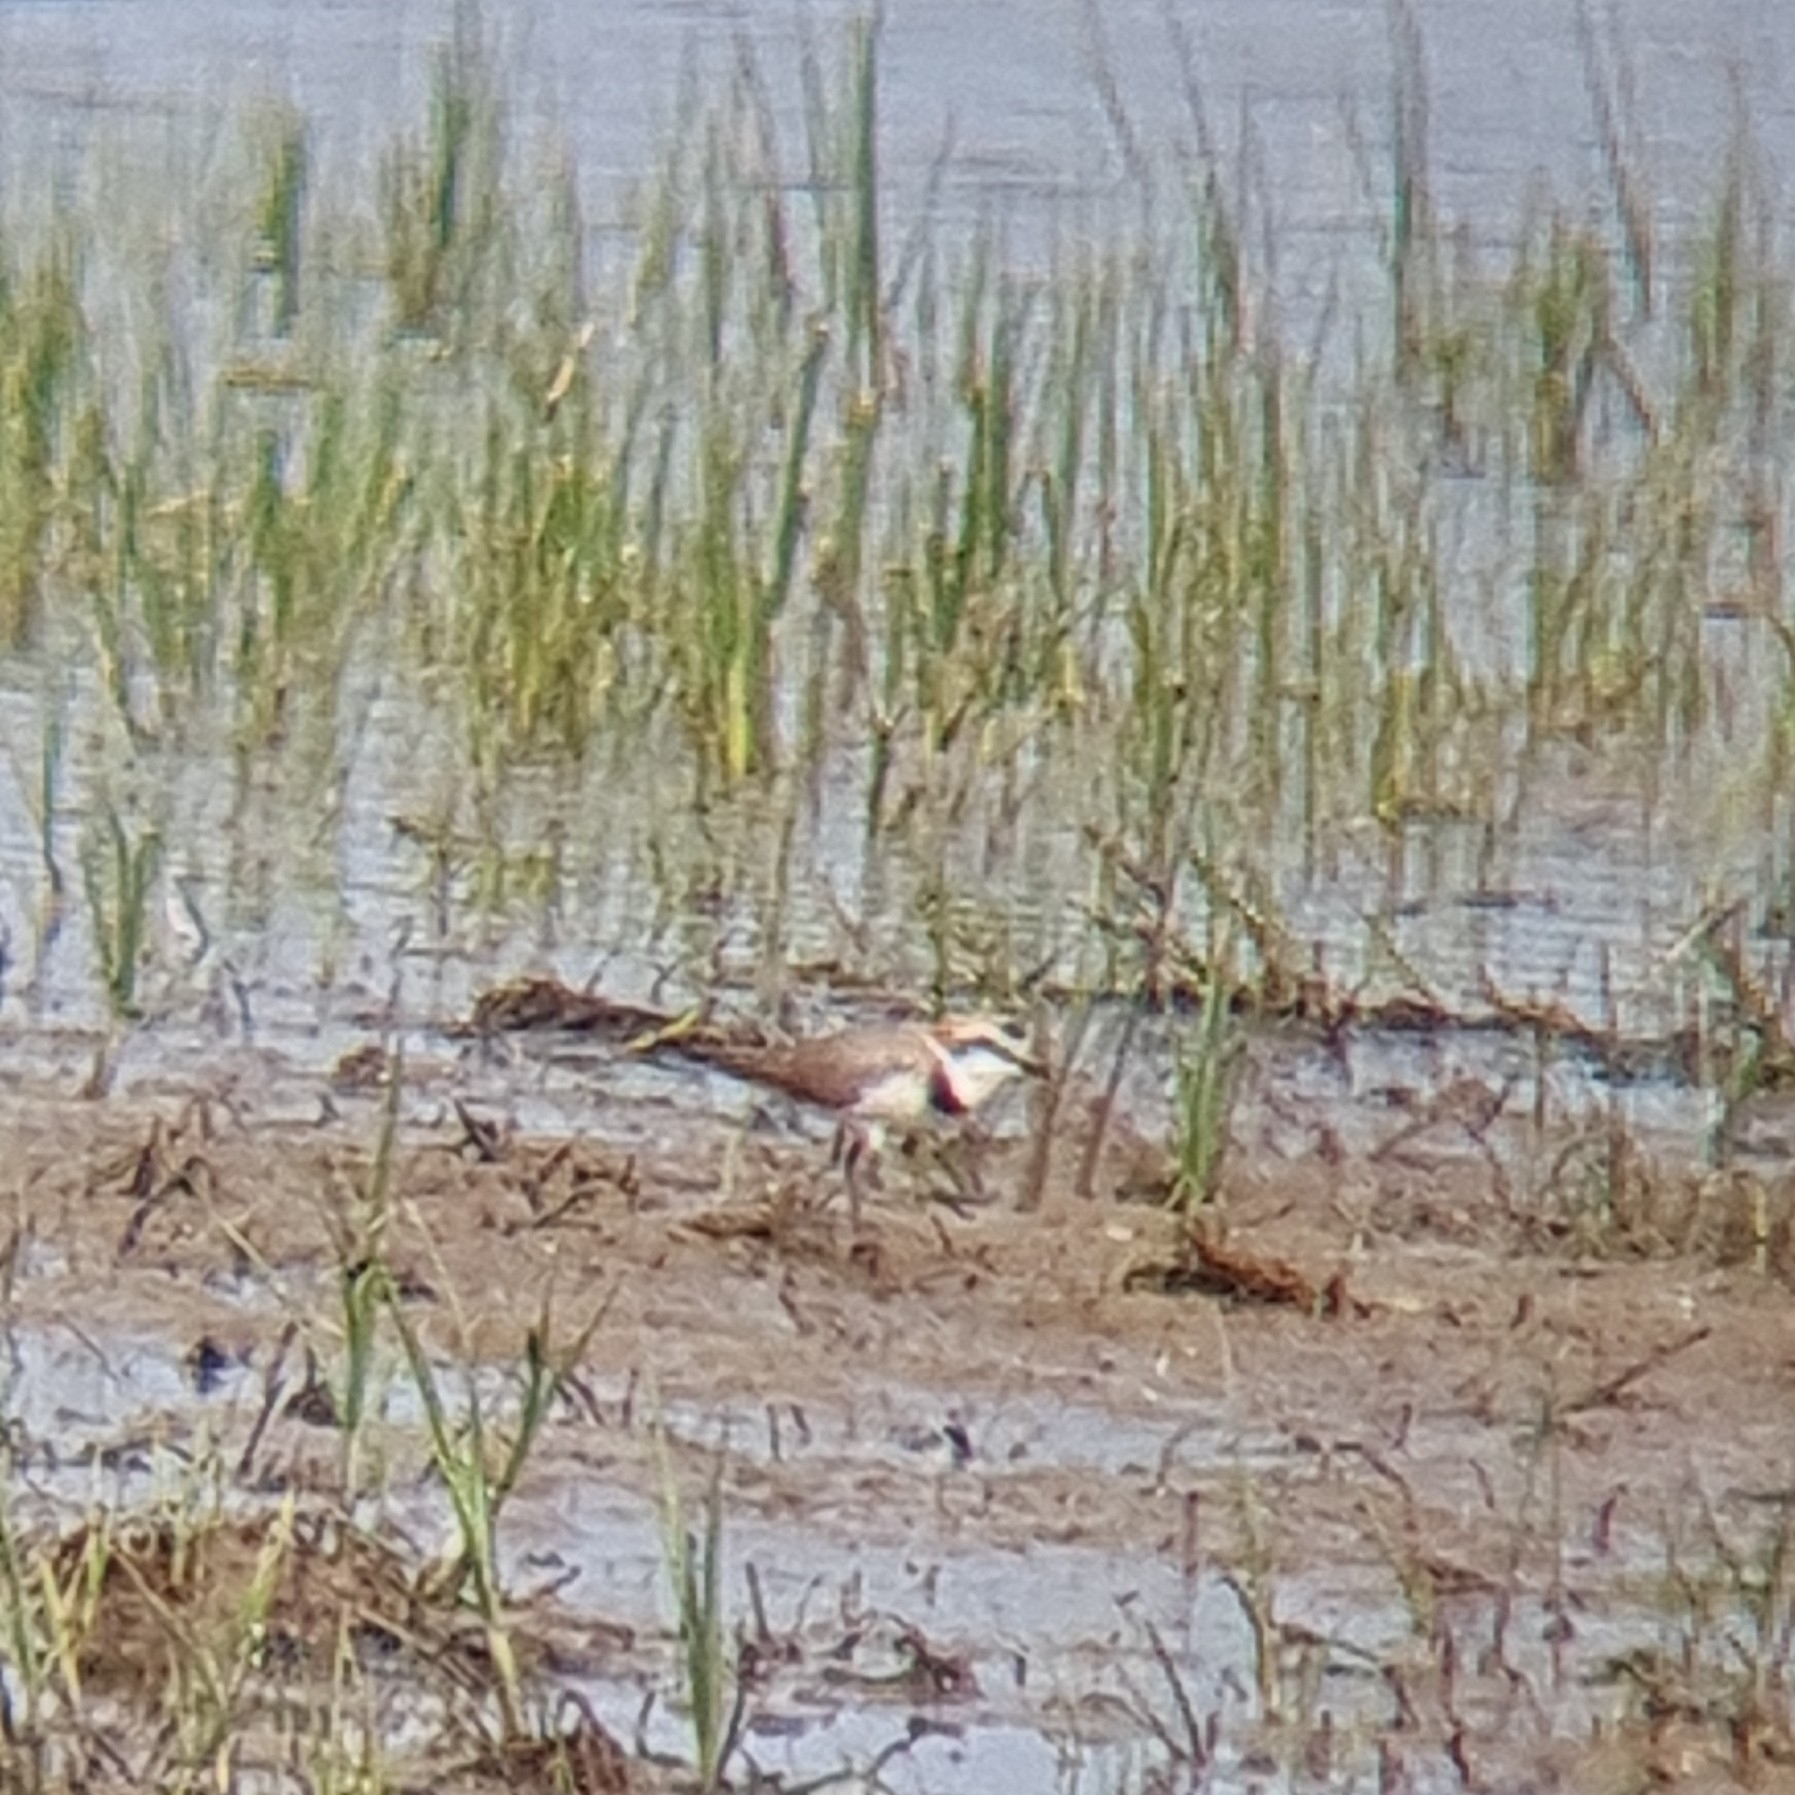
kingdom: Animalia
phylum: Chordata
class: Aves
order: Charadriiformes
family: Charadriidae
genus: Charadrius
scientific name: Charadrius alexandrinus
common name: Kentish plover
